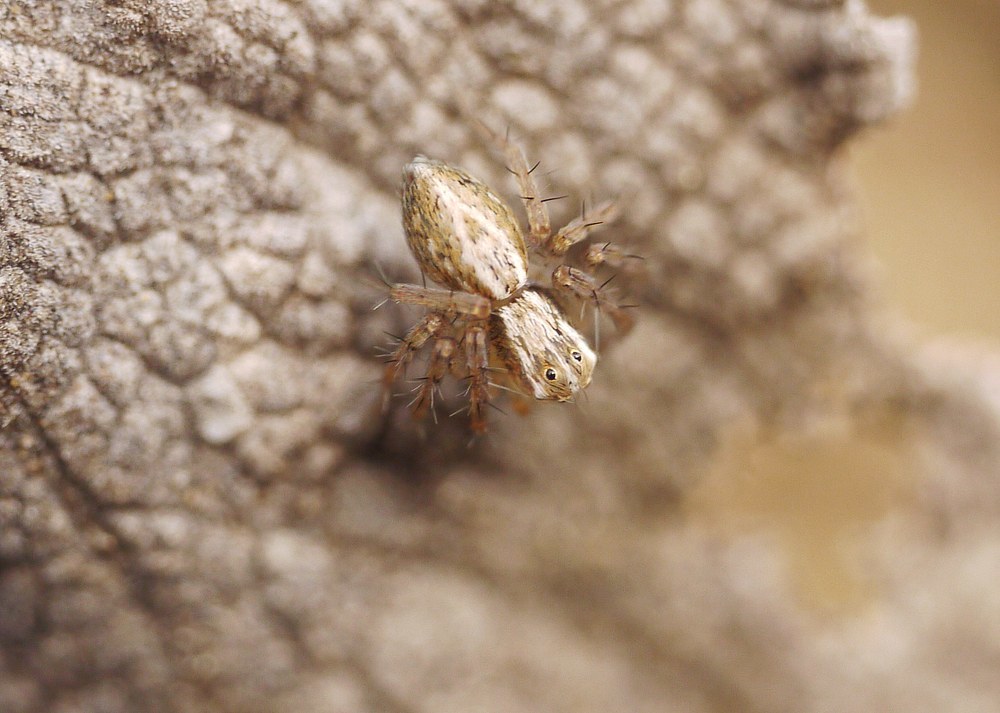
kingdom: Animalia
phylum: Arthropoda
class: Arachnida
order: Araneae
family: Oxyopidae
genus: Oxyopes
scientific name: Oxyopes lineatus
